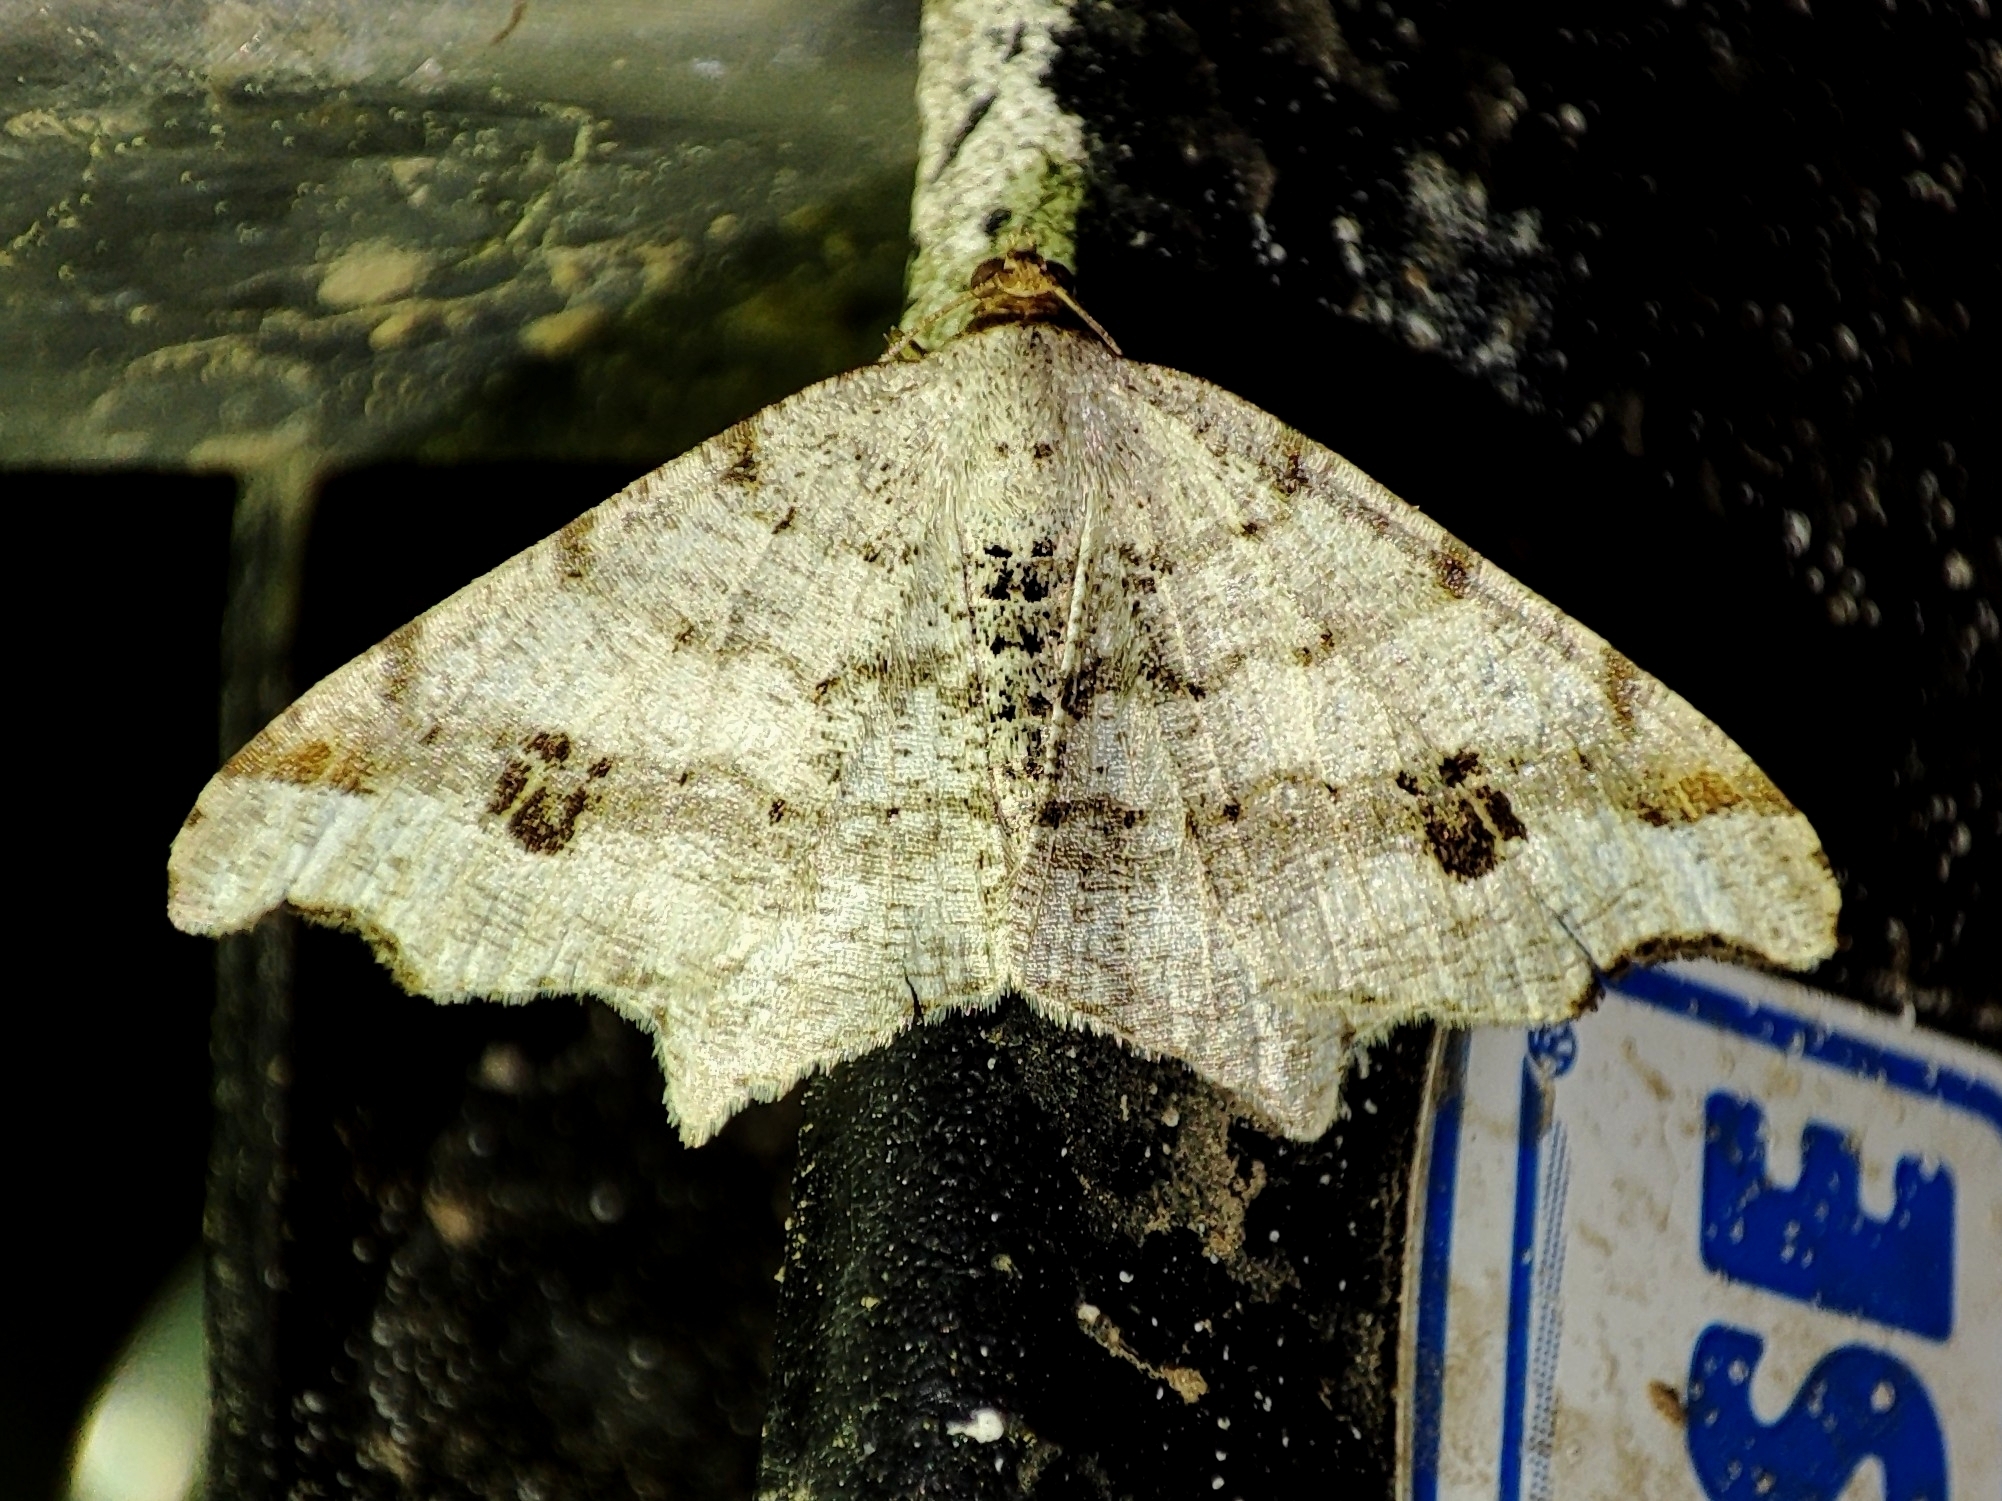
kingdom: Animalia
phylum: Arthropoda
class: Insecta
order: Lepidoptera
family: Geometridae
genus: Macaria
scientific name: Macaria alternata
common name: Sharp-angled peacock
